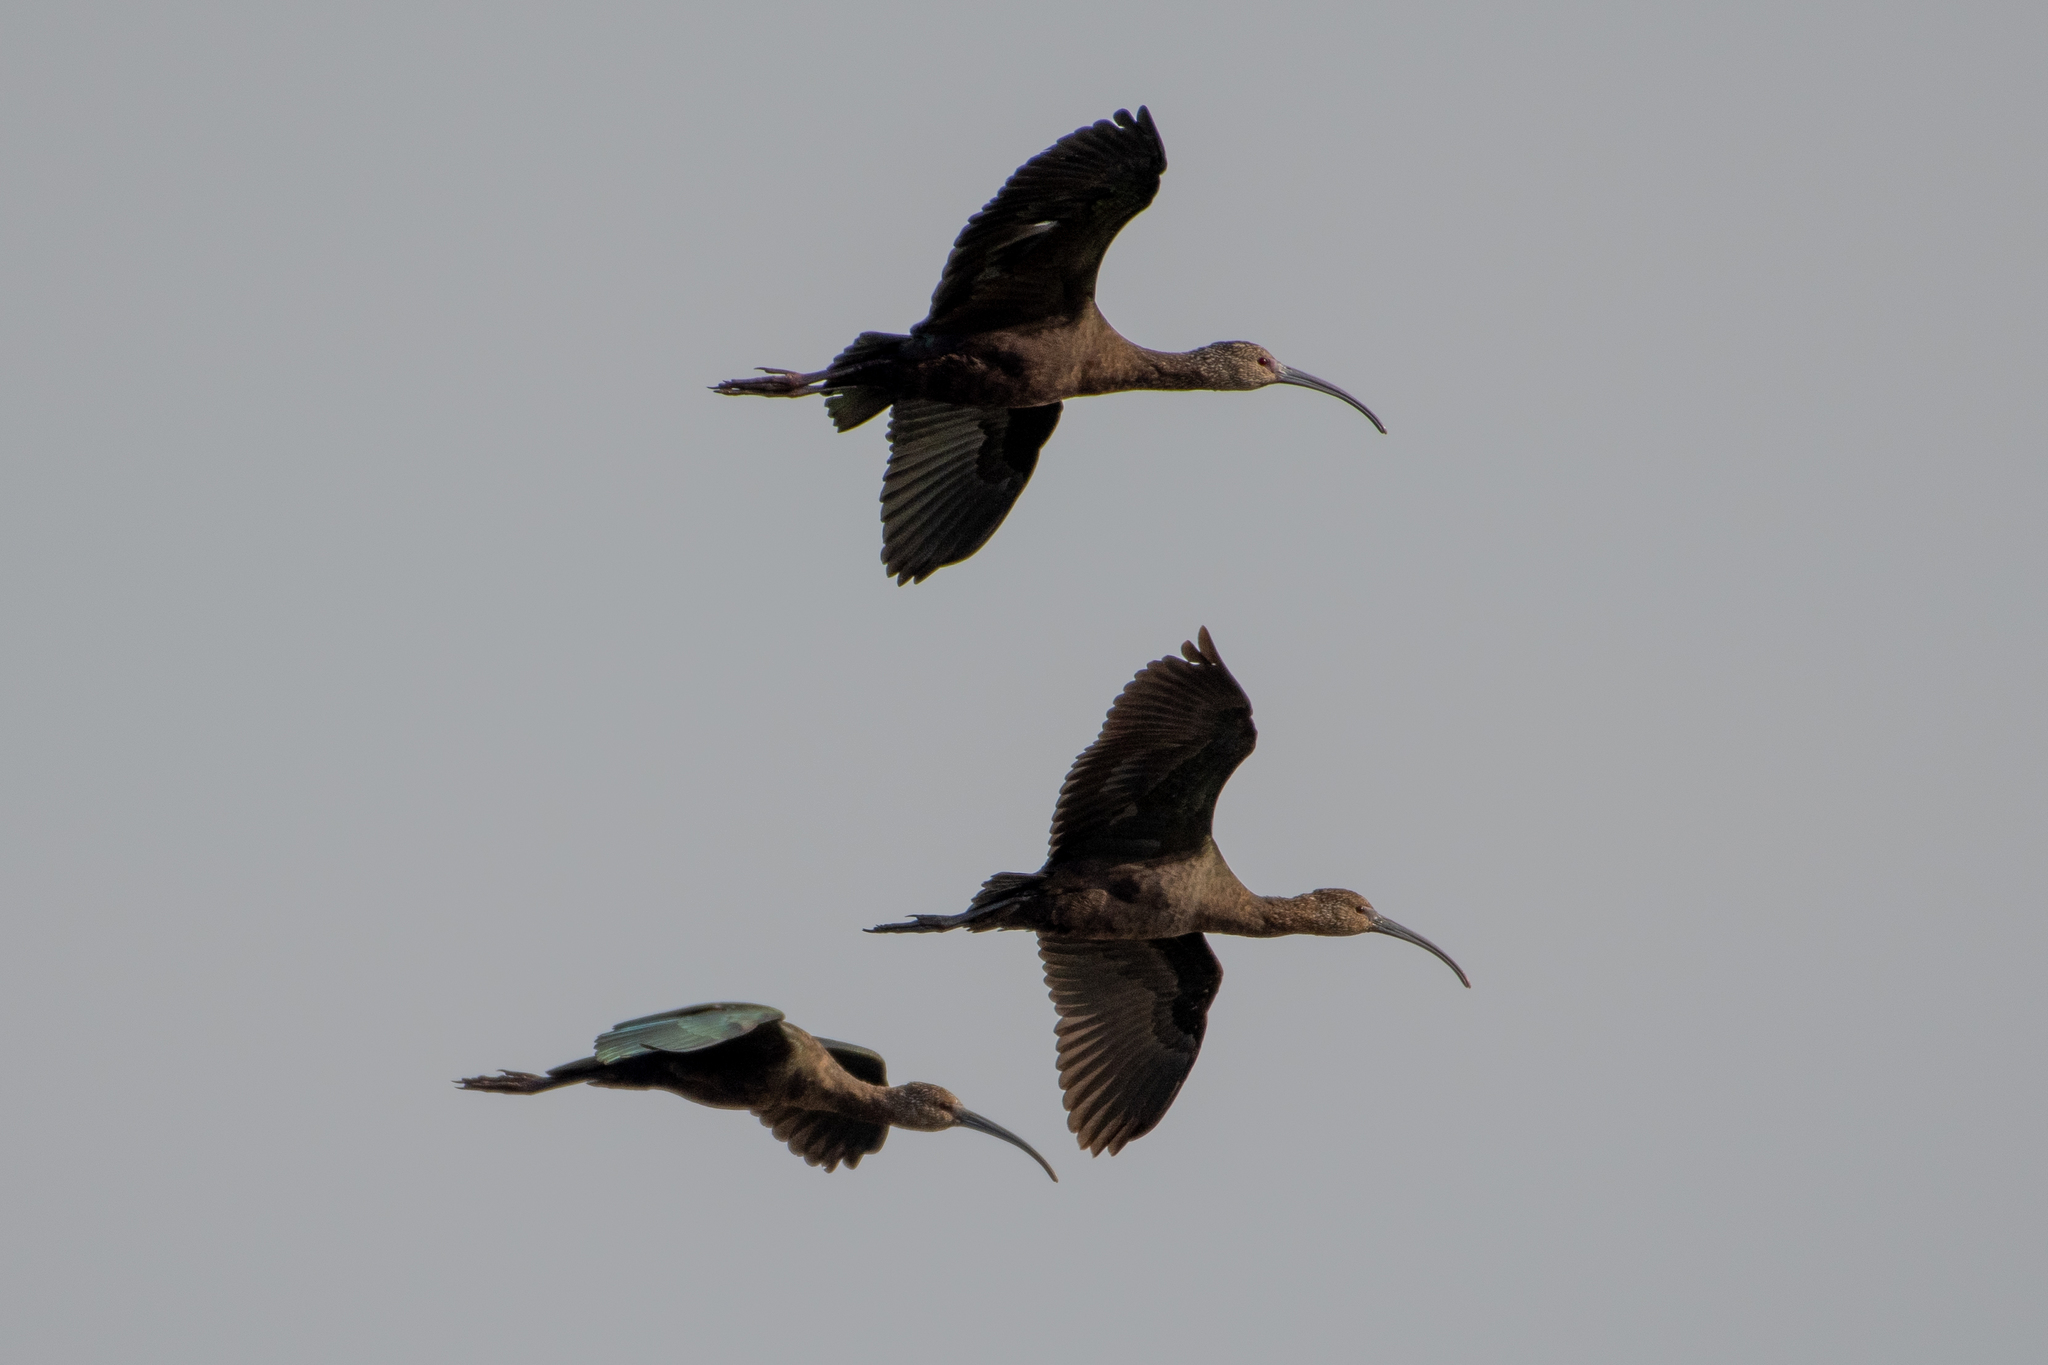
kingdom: Animalia
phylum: Chordata
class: Aves
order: Pelecaniformes
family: Threskiornithidae
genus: Plegadis
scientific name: Plegadis chihi
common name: White-faced ibis
